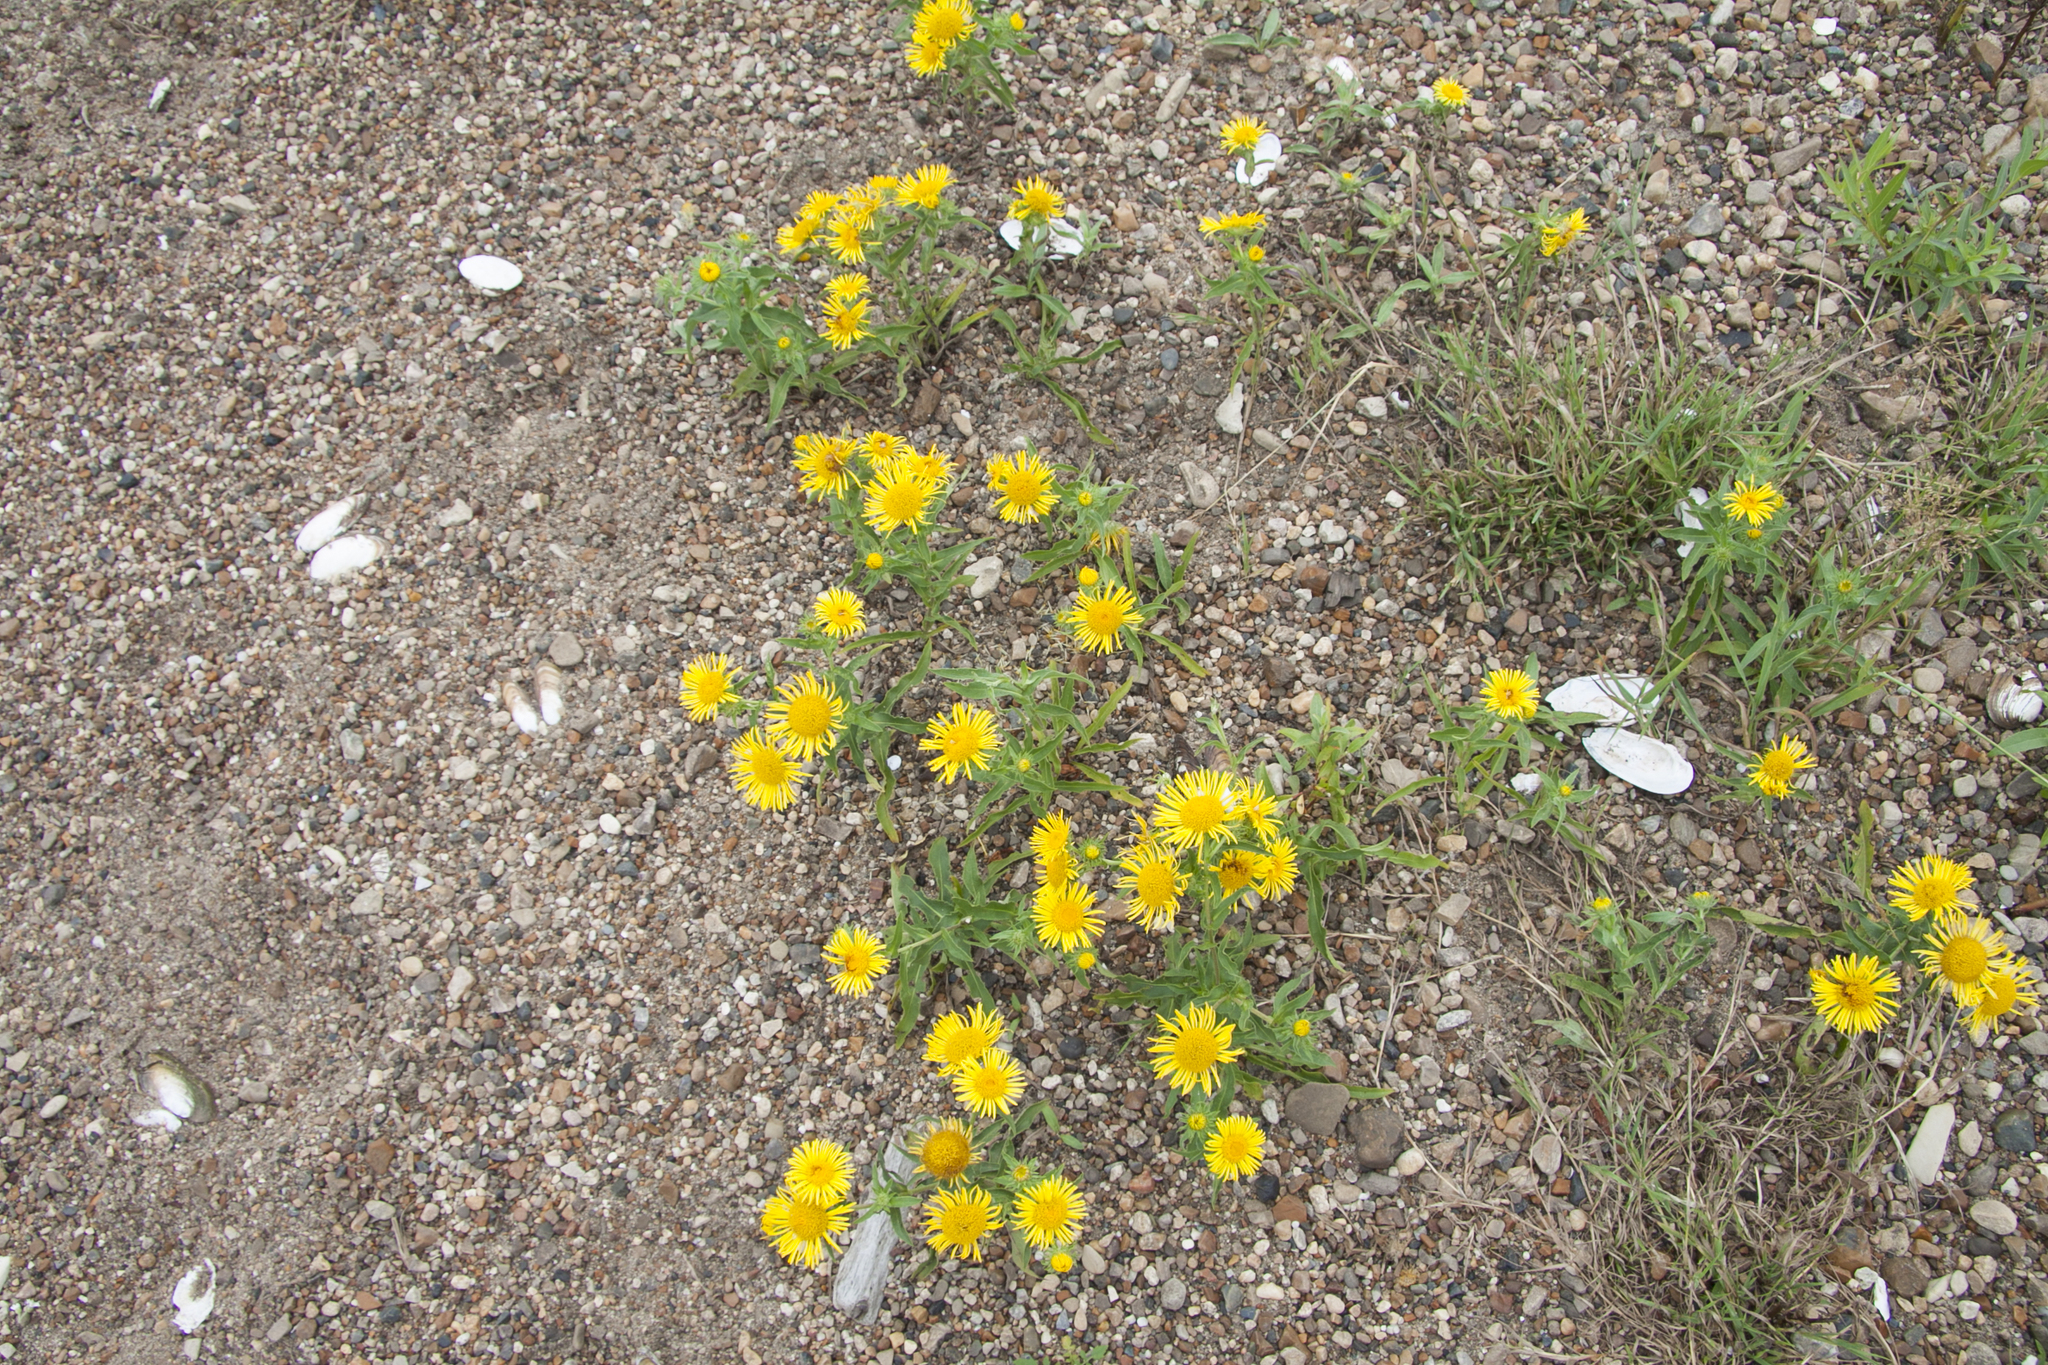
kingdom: Plantae
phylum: Tracheophyta
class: Magnoliopsida
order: Asterales
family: Asteraceae
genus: Pentanema
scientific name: Pentanema britannicum
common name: British elecampane
